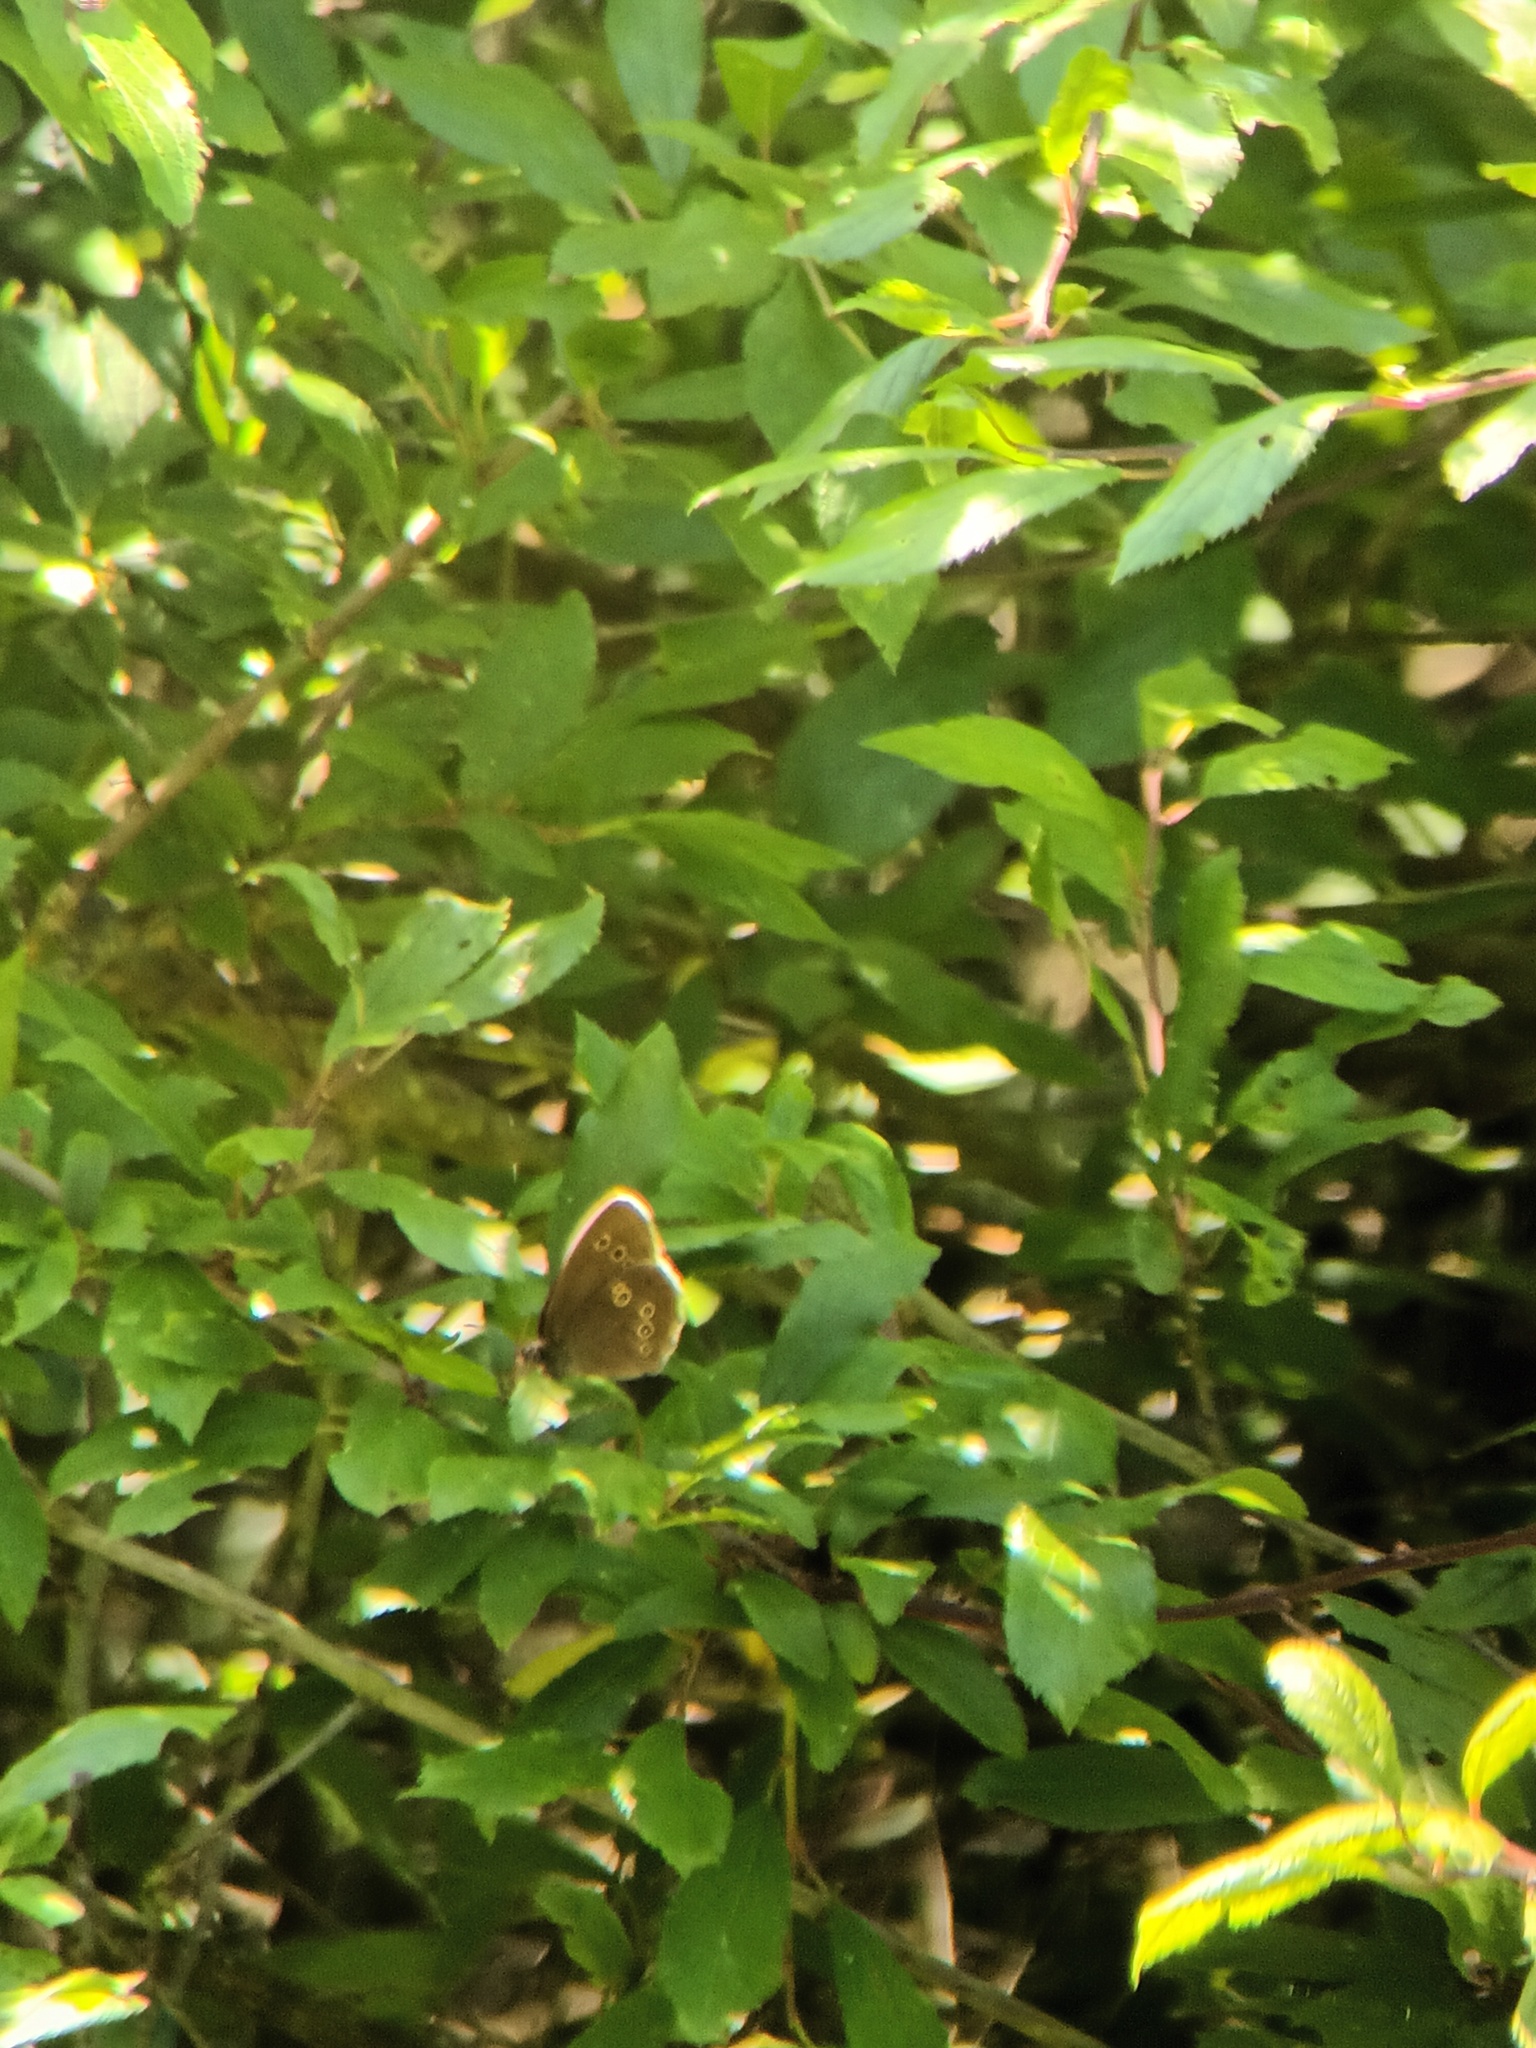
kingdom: Animalia
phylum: Arthropoda
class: Insecta
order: Lepidoptera
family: Nymphalidae
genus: Aphantopus
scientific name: Aphantopus hyperantus
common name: Ringlet
